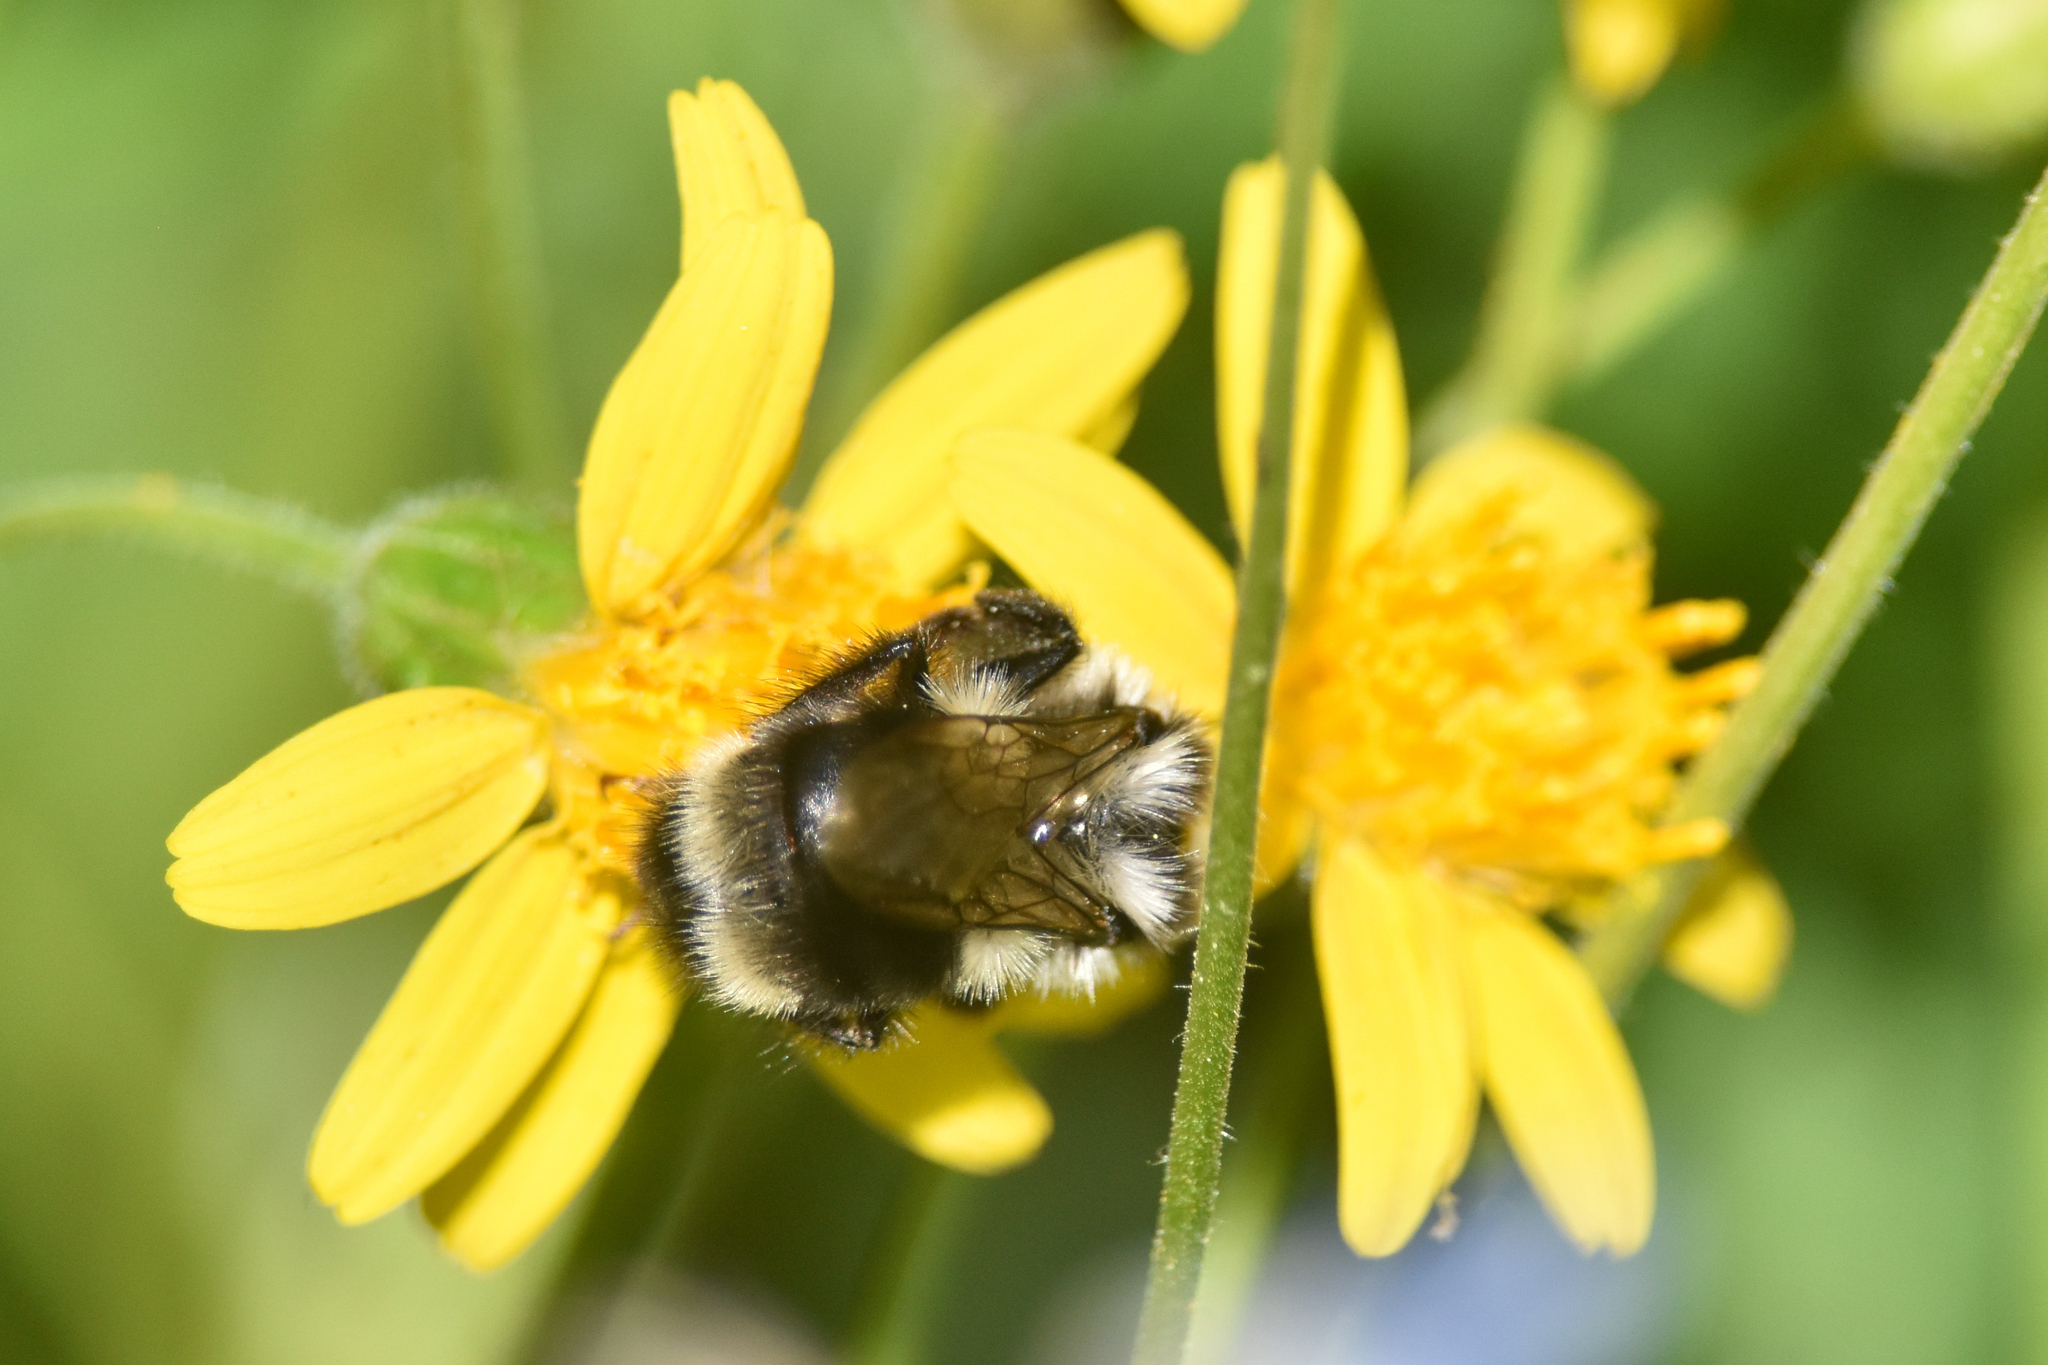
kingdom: Animalia
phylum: Arthropoda
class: Insecta
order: Hymenoptera
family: Apidae
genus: Bombus
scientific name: Bombus vancouverensis
